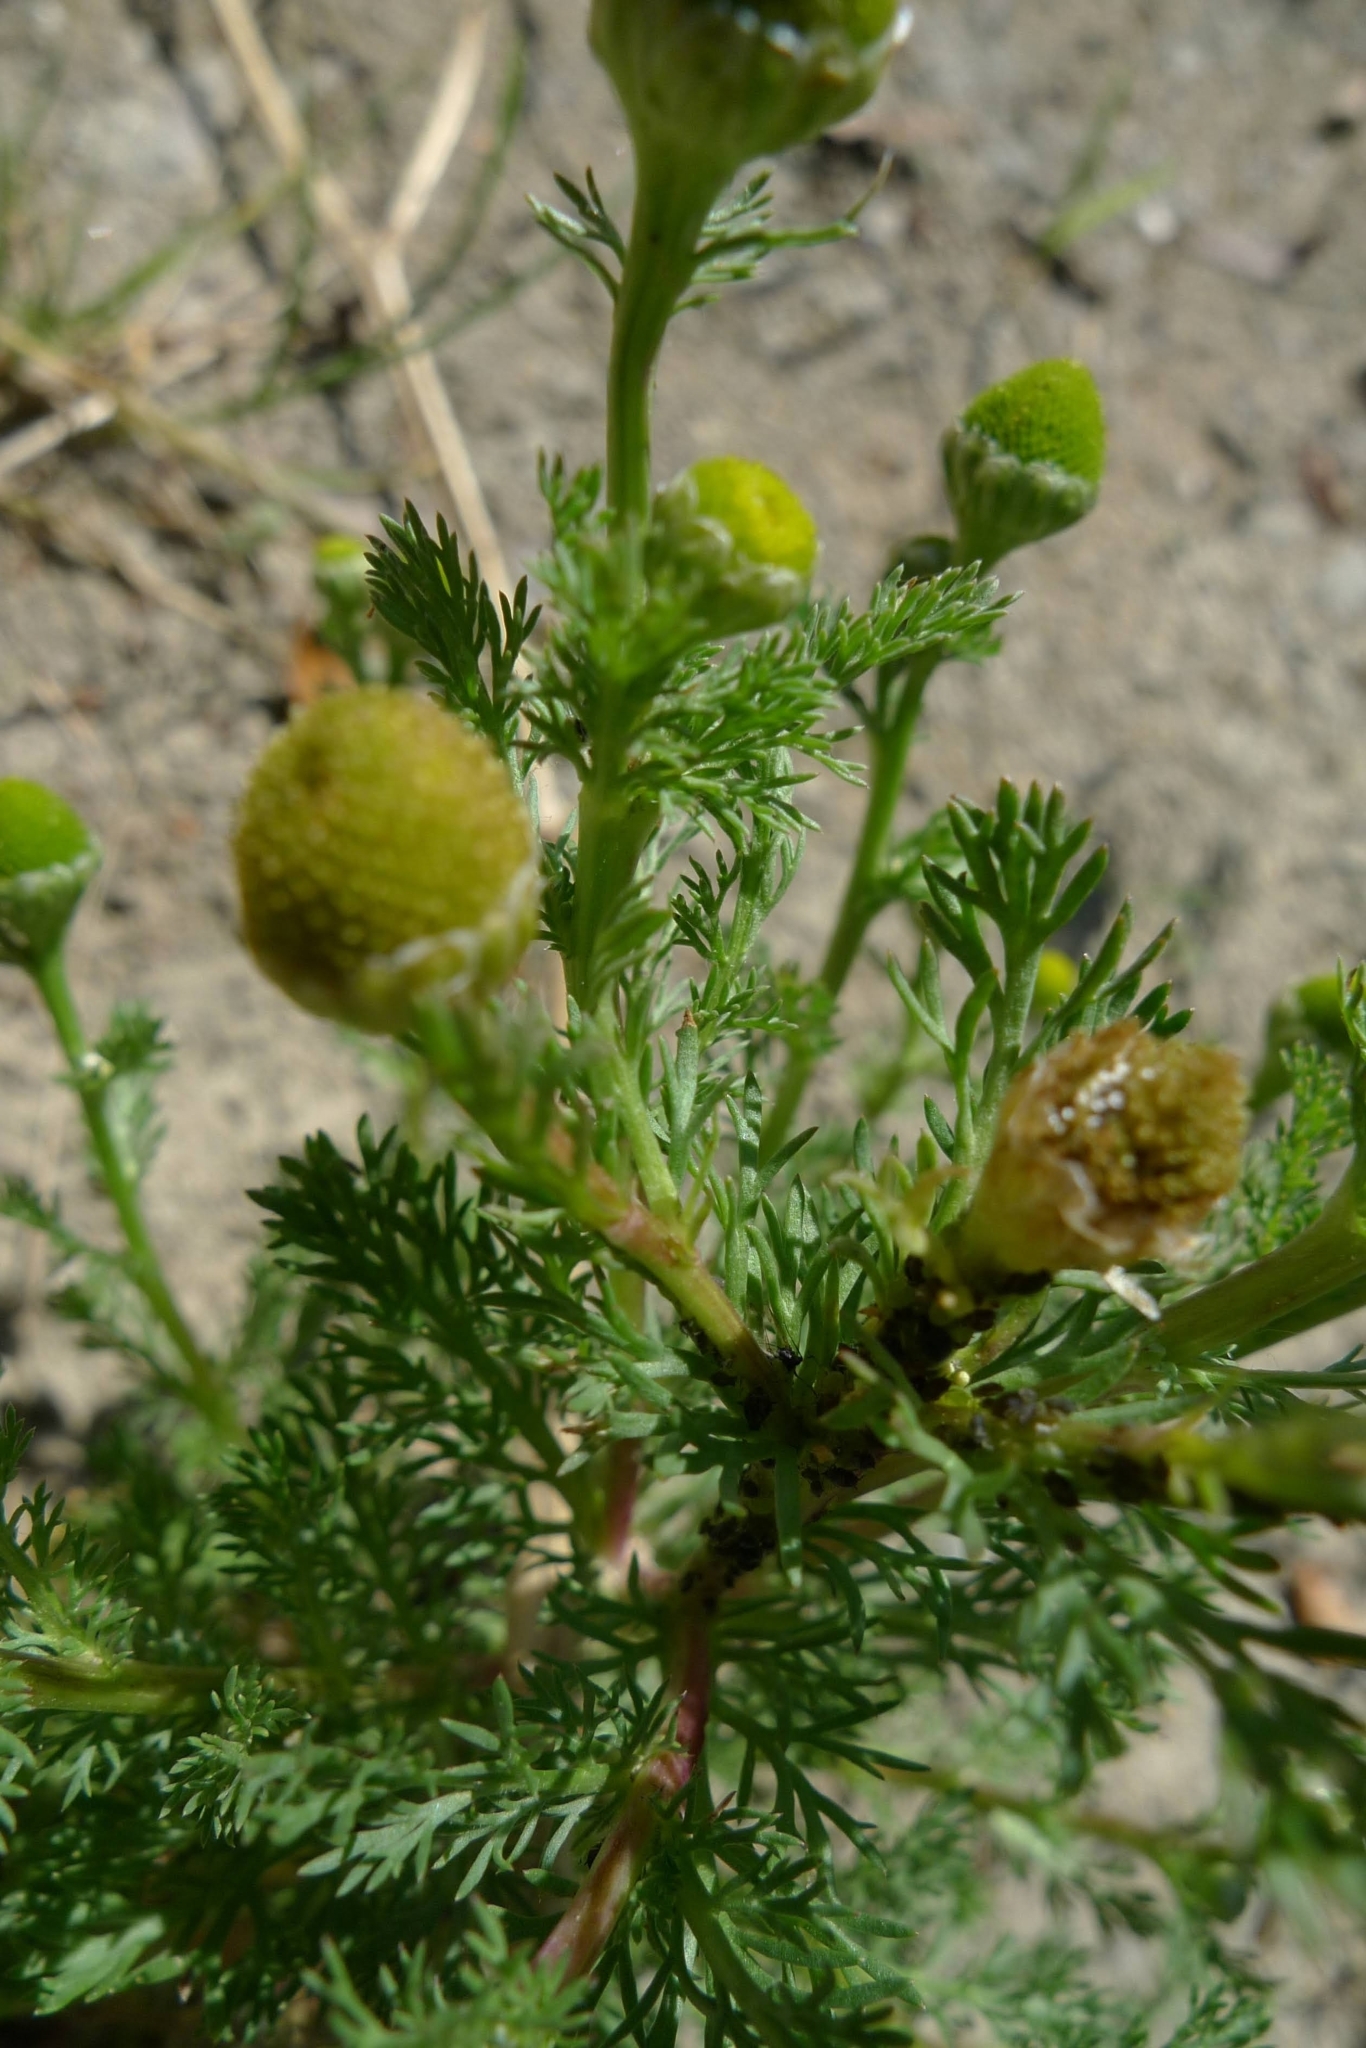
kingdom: Plantae
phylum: Tracheophyta
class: Magnoliopsida
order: Asterales
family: Asteraceae
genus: Matricaria
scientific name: Matricaria discoidea
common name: Disc mayweed
